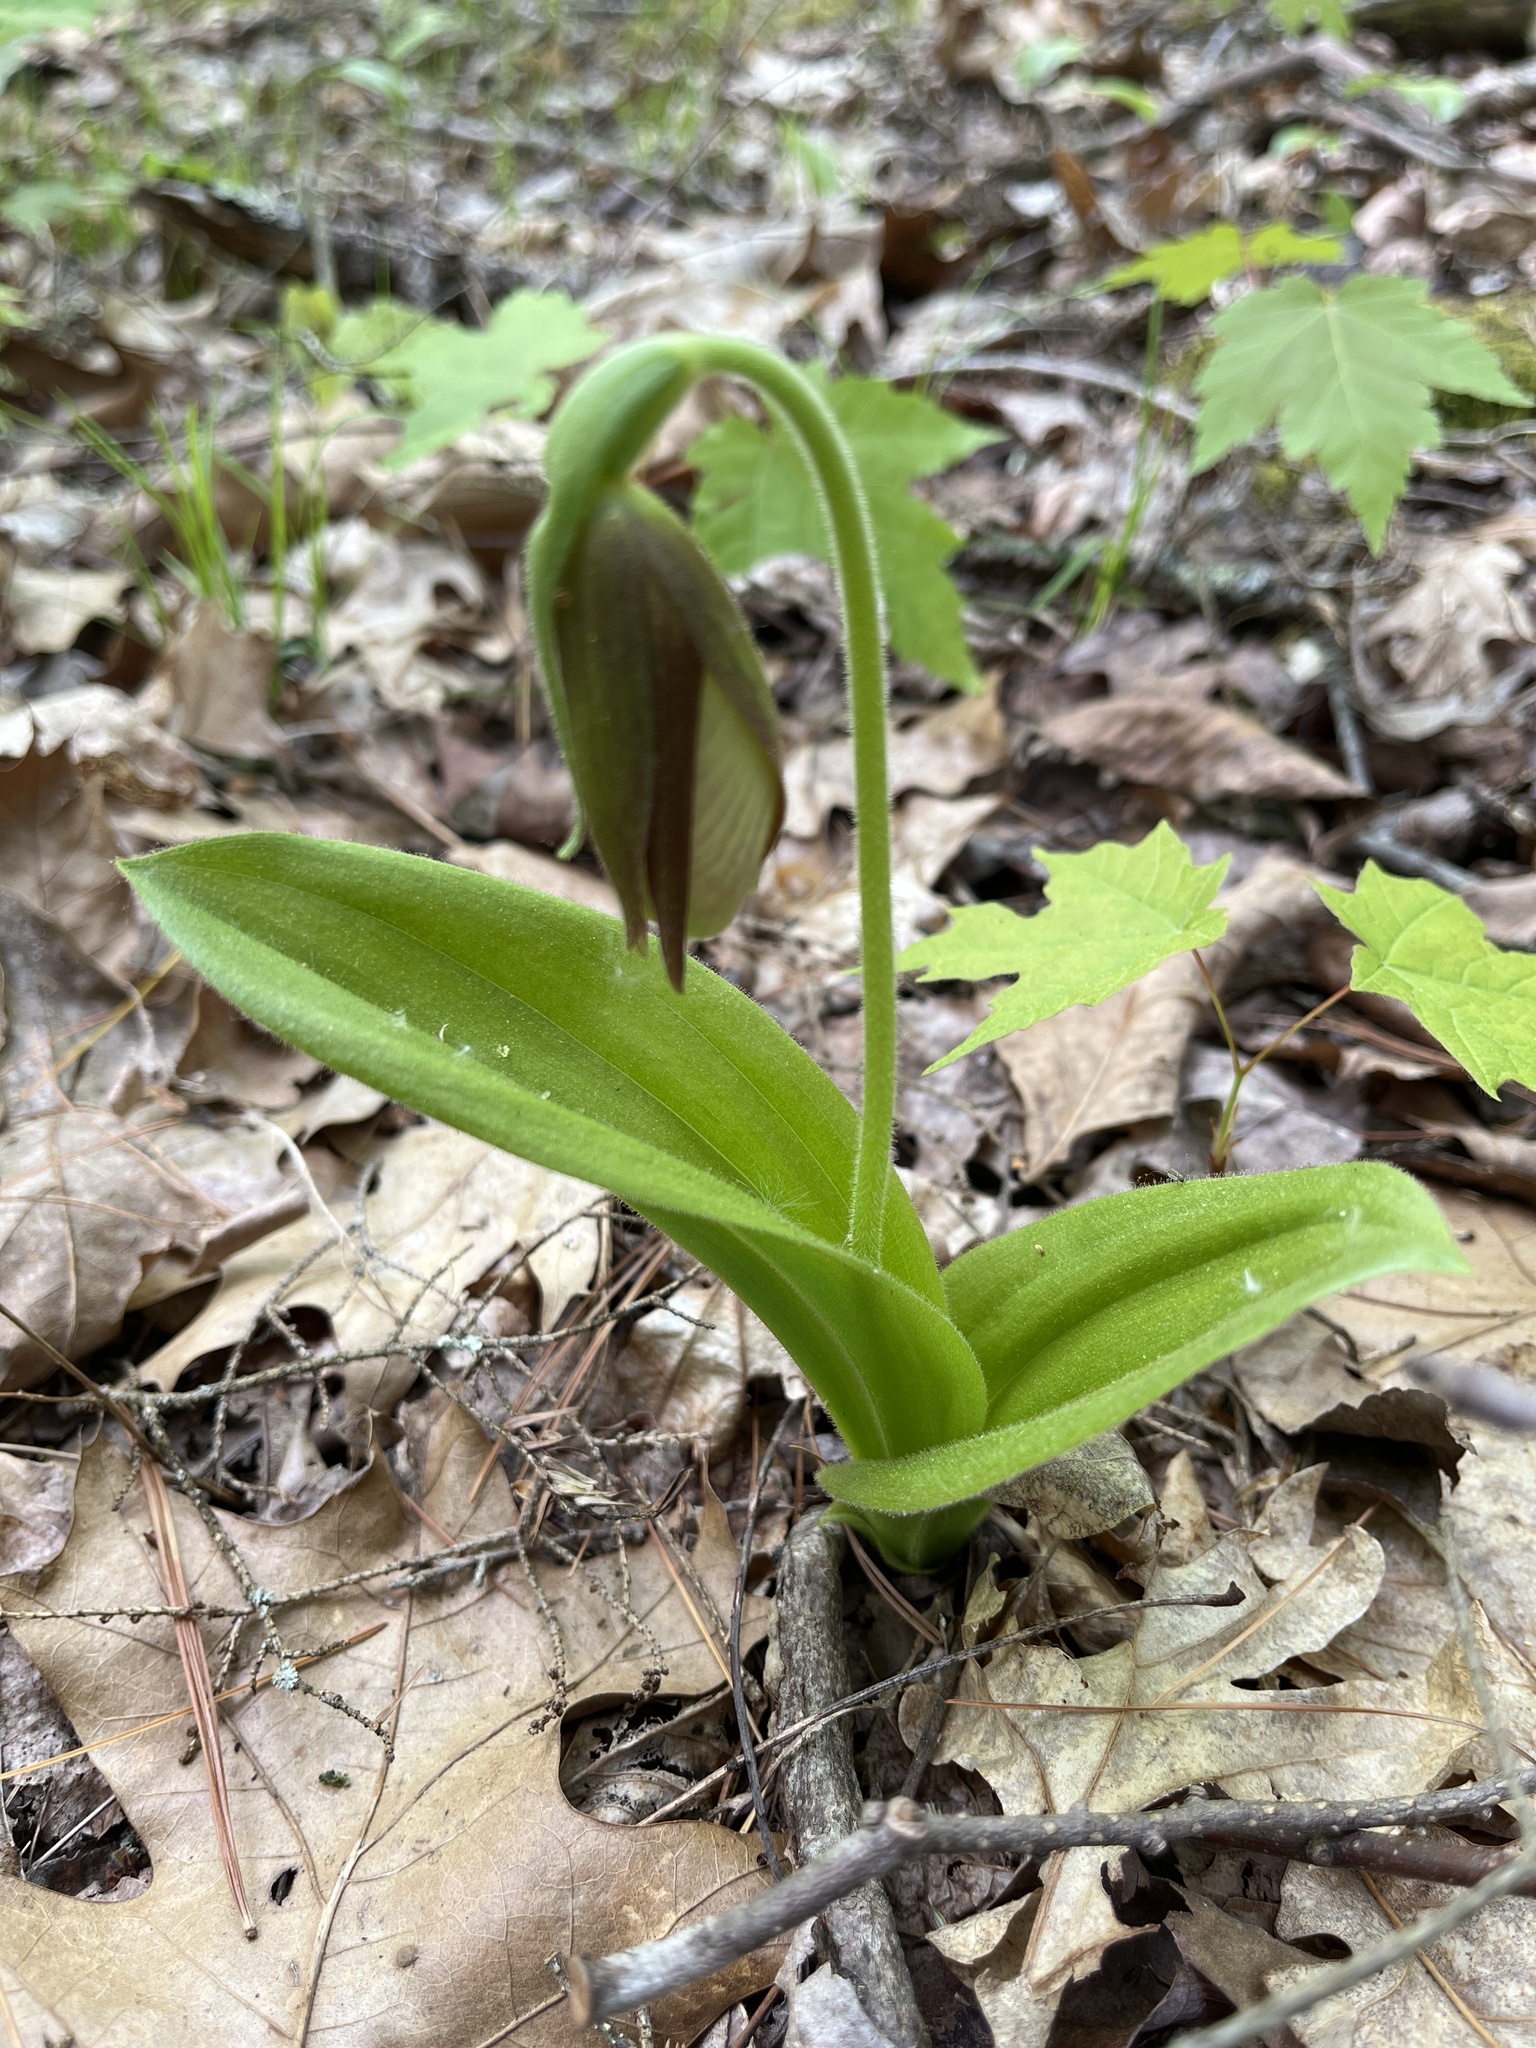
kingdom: Plantae
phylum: Tracheophyta
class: Liliopsida
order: Asparagales
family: Orchidaceae
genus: Cypripedium
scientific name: Cypripedium acaule
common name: Pink lady's-slipper
